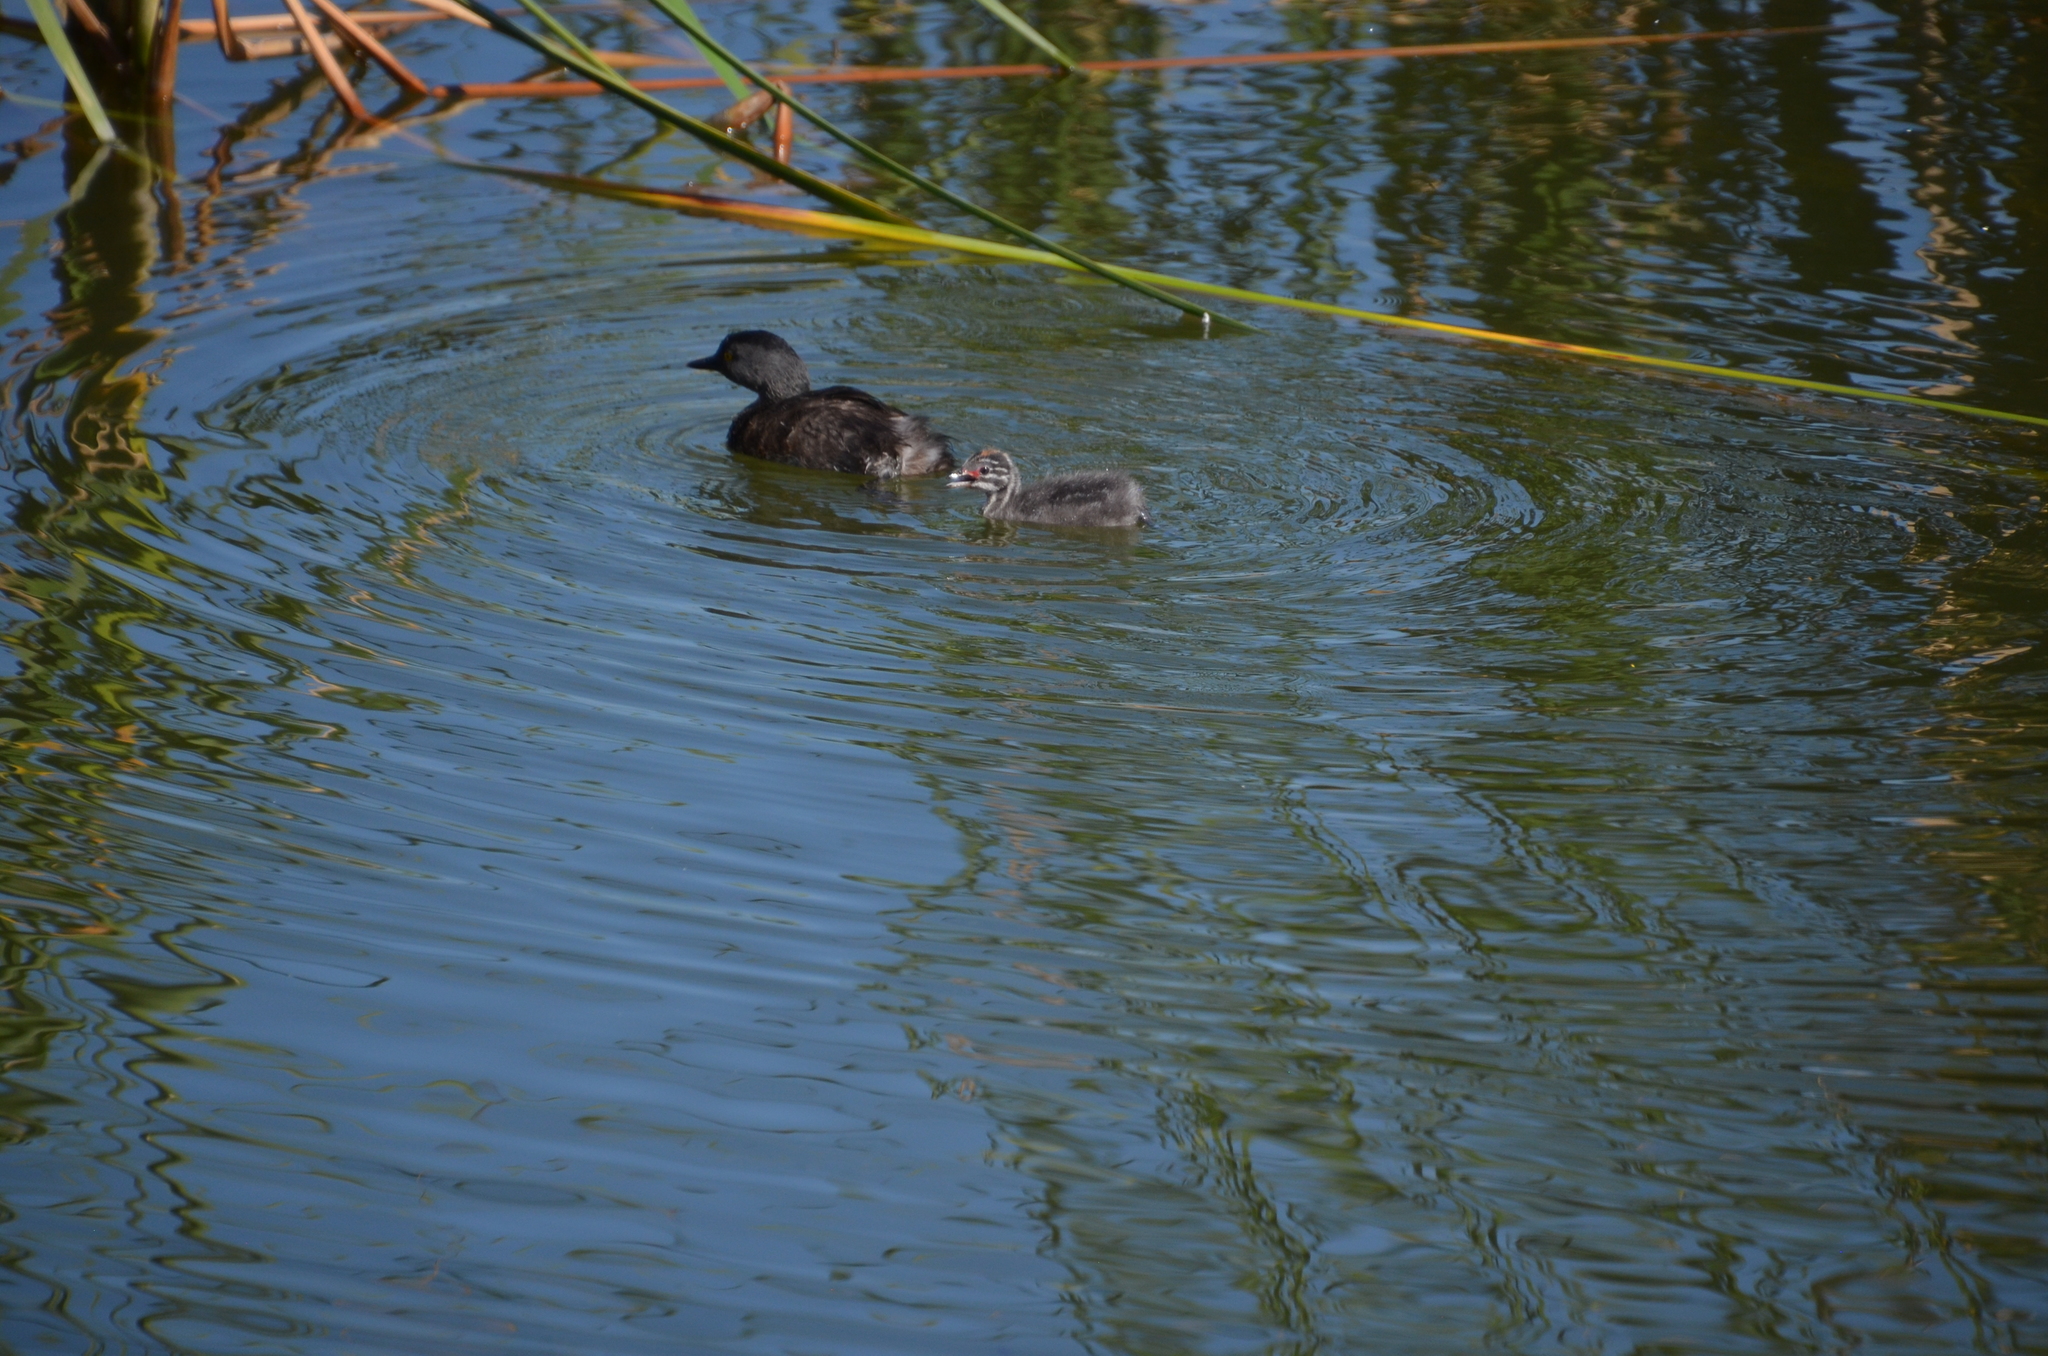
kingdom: Animalia
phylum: Chordata
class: Aves
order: Podicipediformes
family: Podicipedidae
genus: Tachybaptus
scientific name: Tachybaptus dominicus
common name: Least grebe
